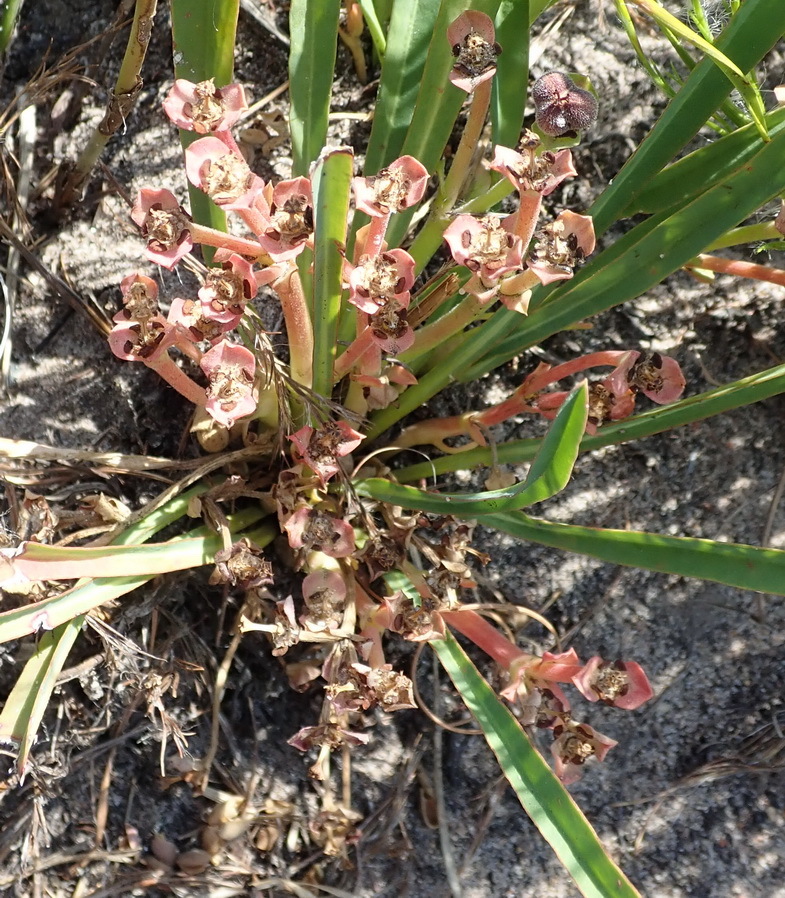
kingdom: Plantae
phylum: Tracheophyta
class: Magnoliopsida
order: Malpighiales
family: Euphorbiaceae
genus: Euphorbia
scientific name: Euphorbia silenifolia
